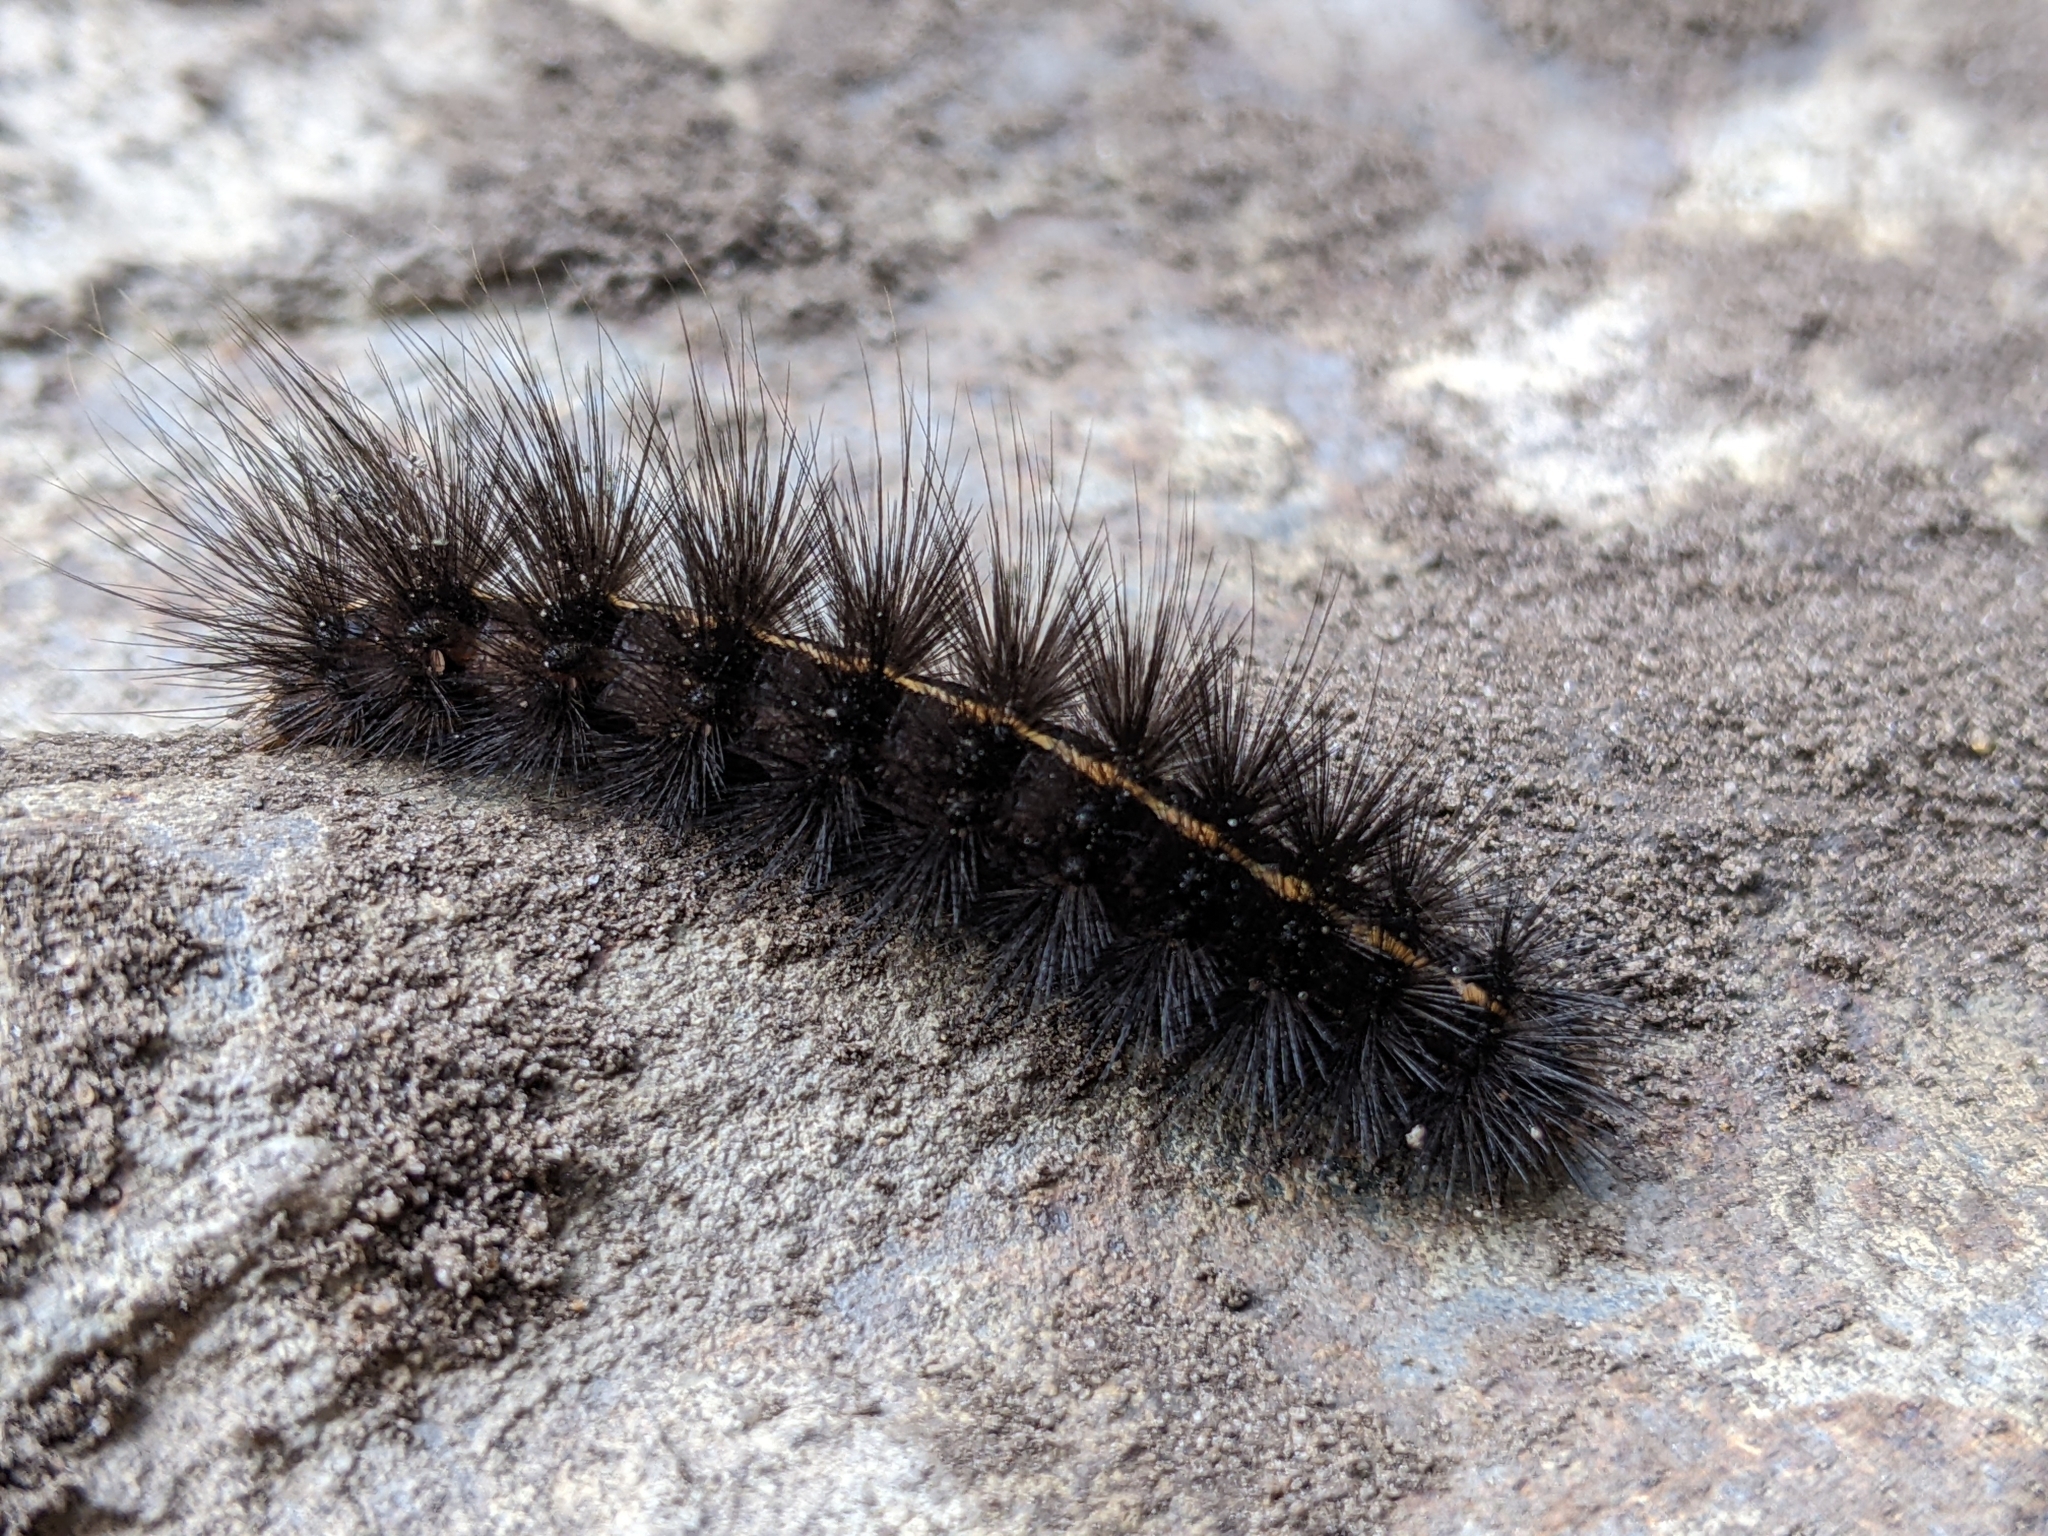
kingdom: Animalia
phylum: Arthropoda
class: Insecta
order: Lepidoptera
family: Erebidae
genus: Spilosoma
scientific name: Spilosoma lubricipeda
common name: White ermine
